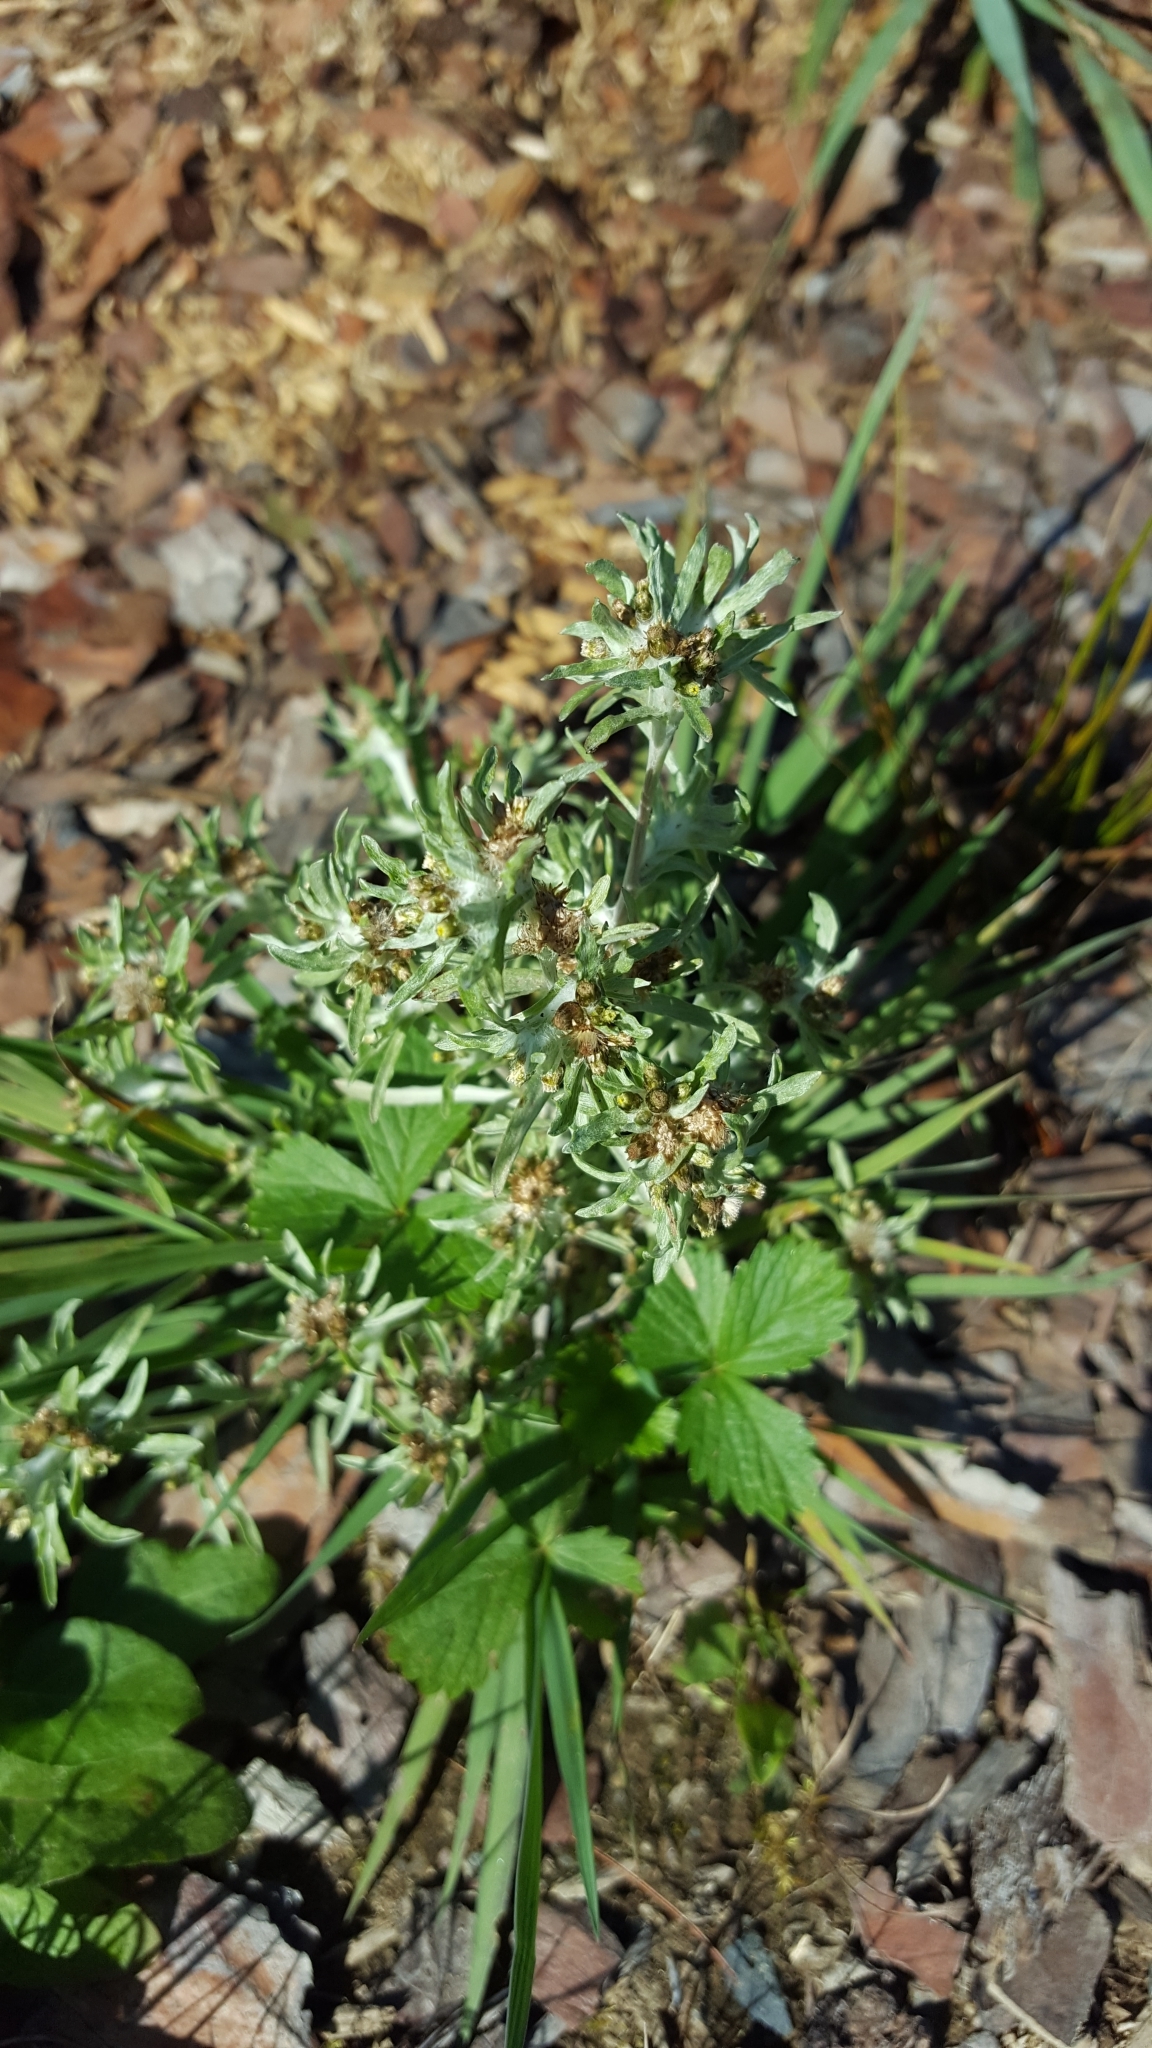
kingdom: Plantae
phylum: Tracheophyta
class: Magnoliopsida
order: Asterales
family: Asteraceae
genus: Gnaphalium
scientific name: Gnaphalium uliginosum
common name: Marsh cudweed
